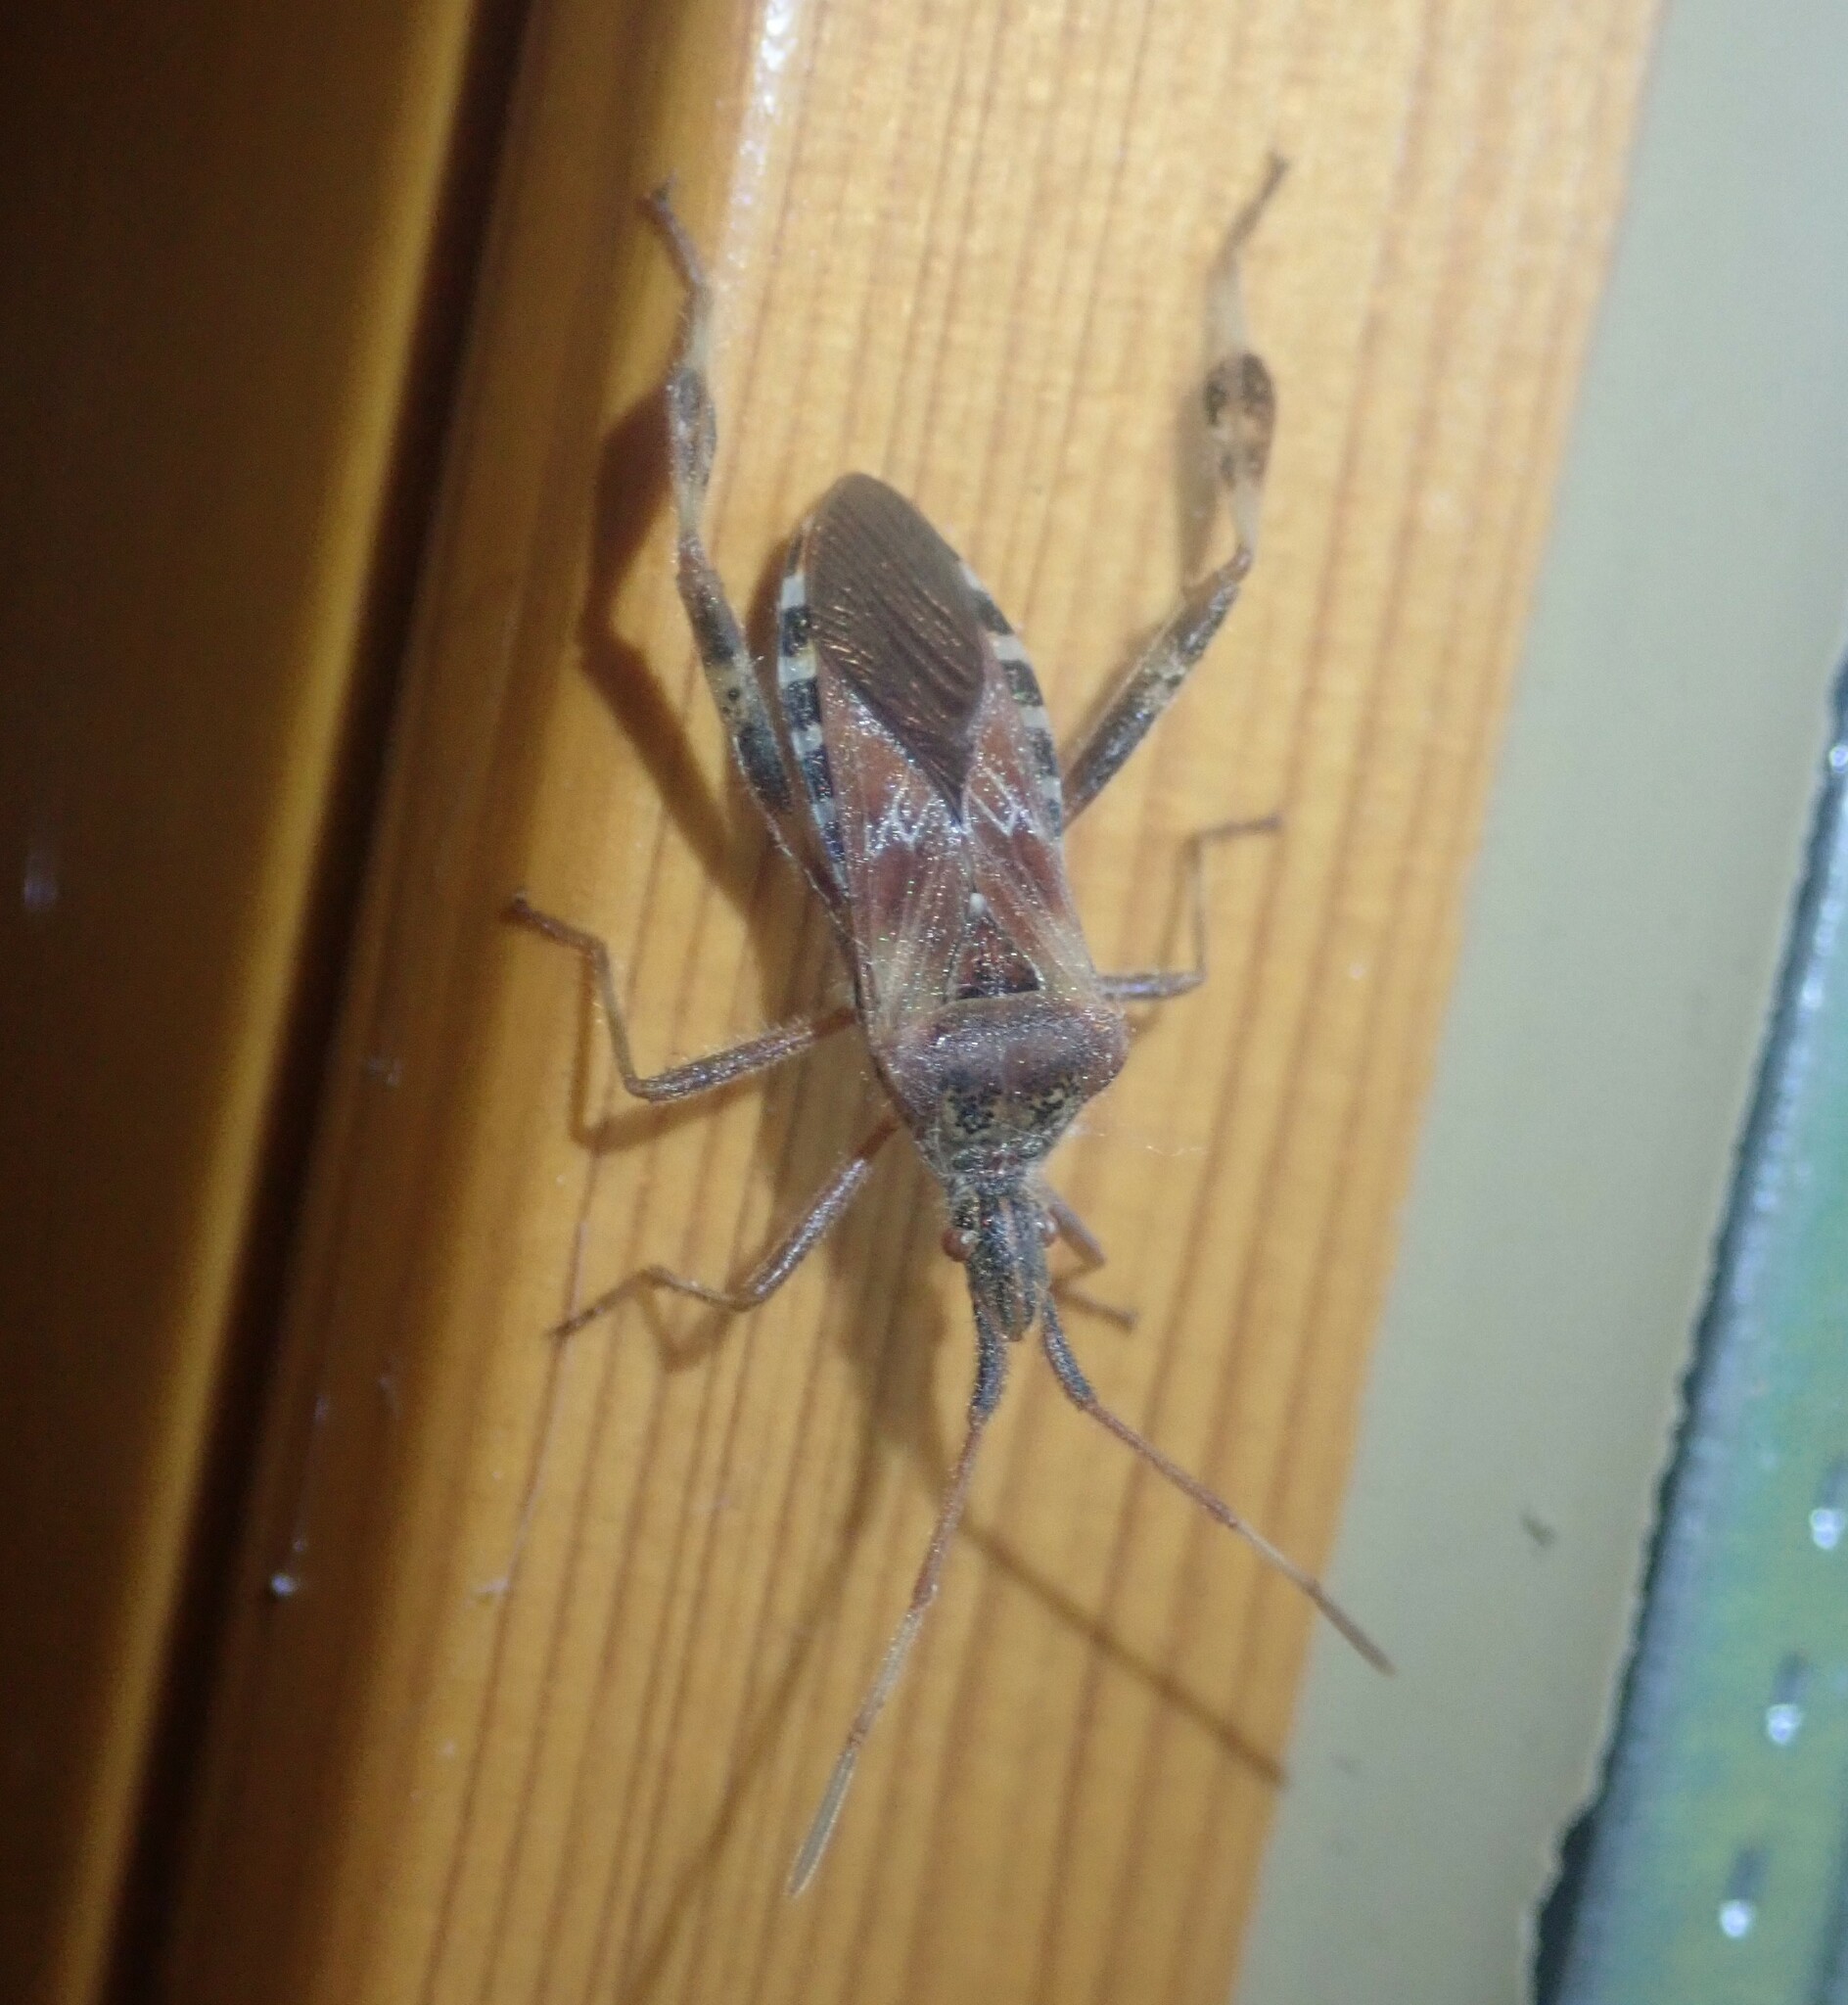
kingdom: Animalia
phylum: Arthropoda
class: Insecta
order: Hemiptera
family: Coreidae
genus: Leptoglossus
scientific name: Leptoglossus occidentalis
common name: Western conifer-seed bug
